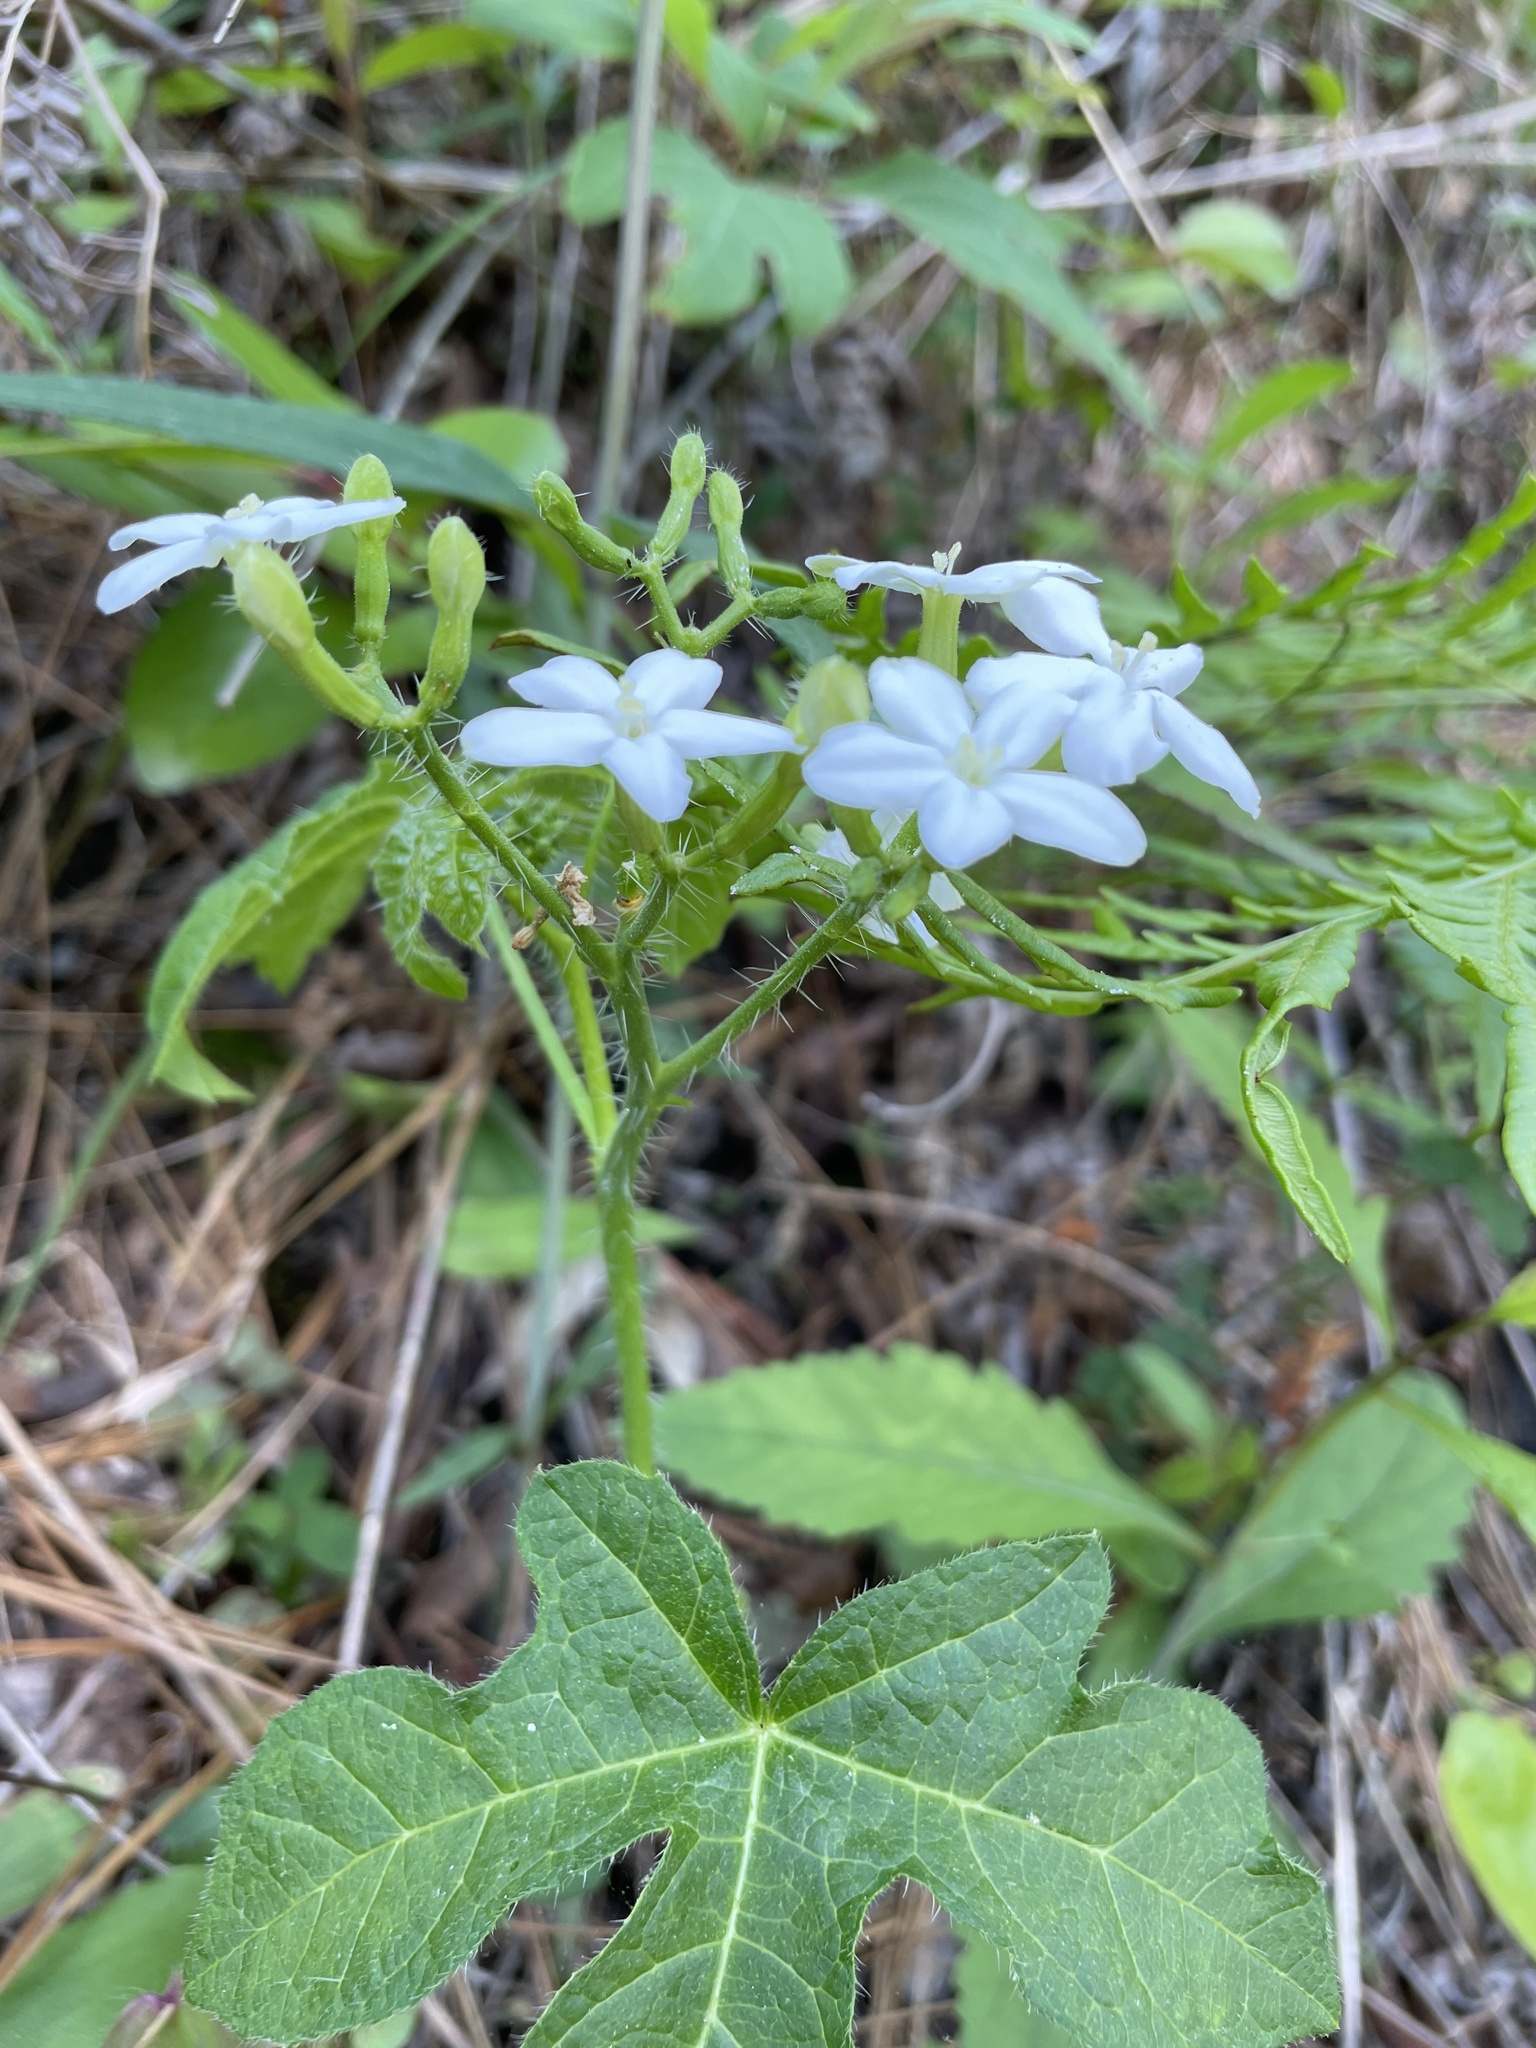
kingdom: Plantae
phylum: Tracheophyta
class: Magnoliopsida
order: Malpighiales
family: Euphorbiaceae
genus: Cnidoscolus
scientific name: Cnidoscolus stimulosus
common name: Bull-nettle
